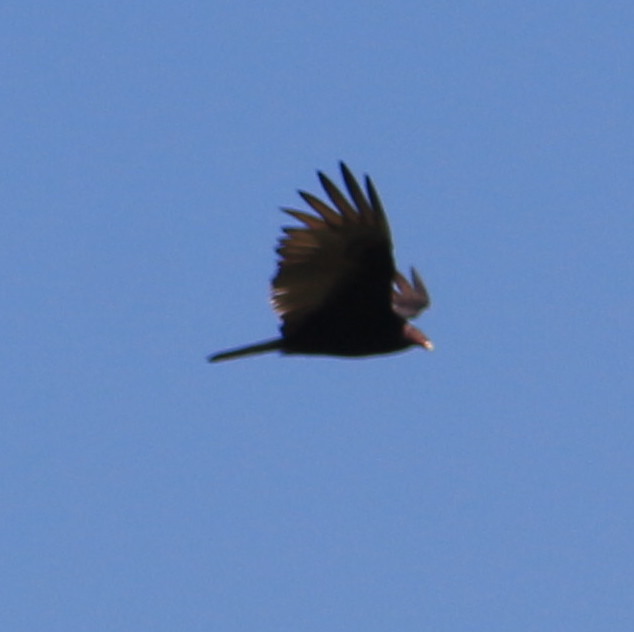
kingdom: Animalia
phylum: Chordata
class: Aves
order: Accipitriformes
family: Cathartidae
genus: Cathartes
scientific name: Cathartes aura
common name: Turkey vulture
